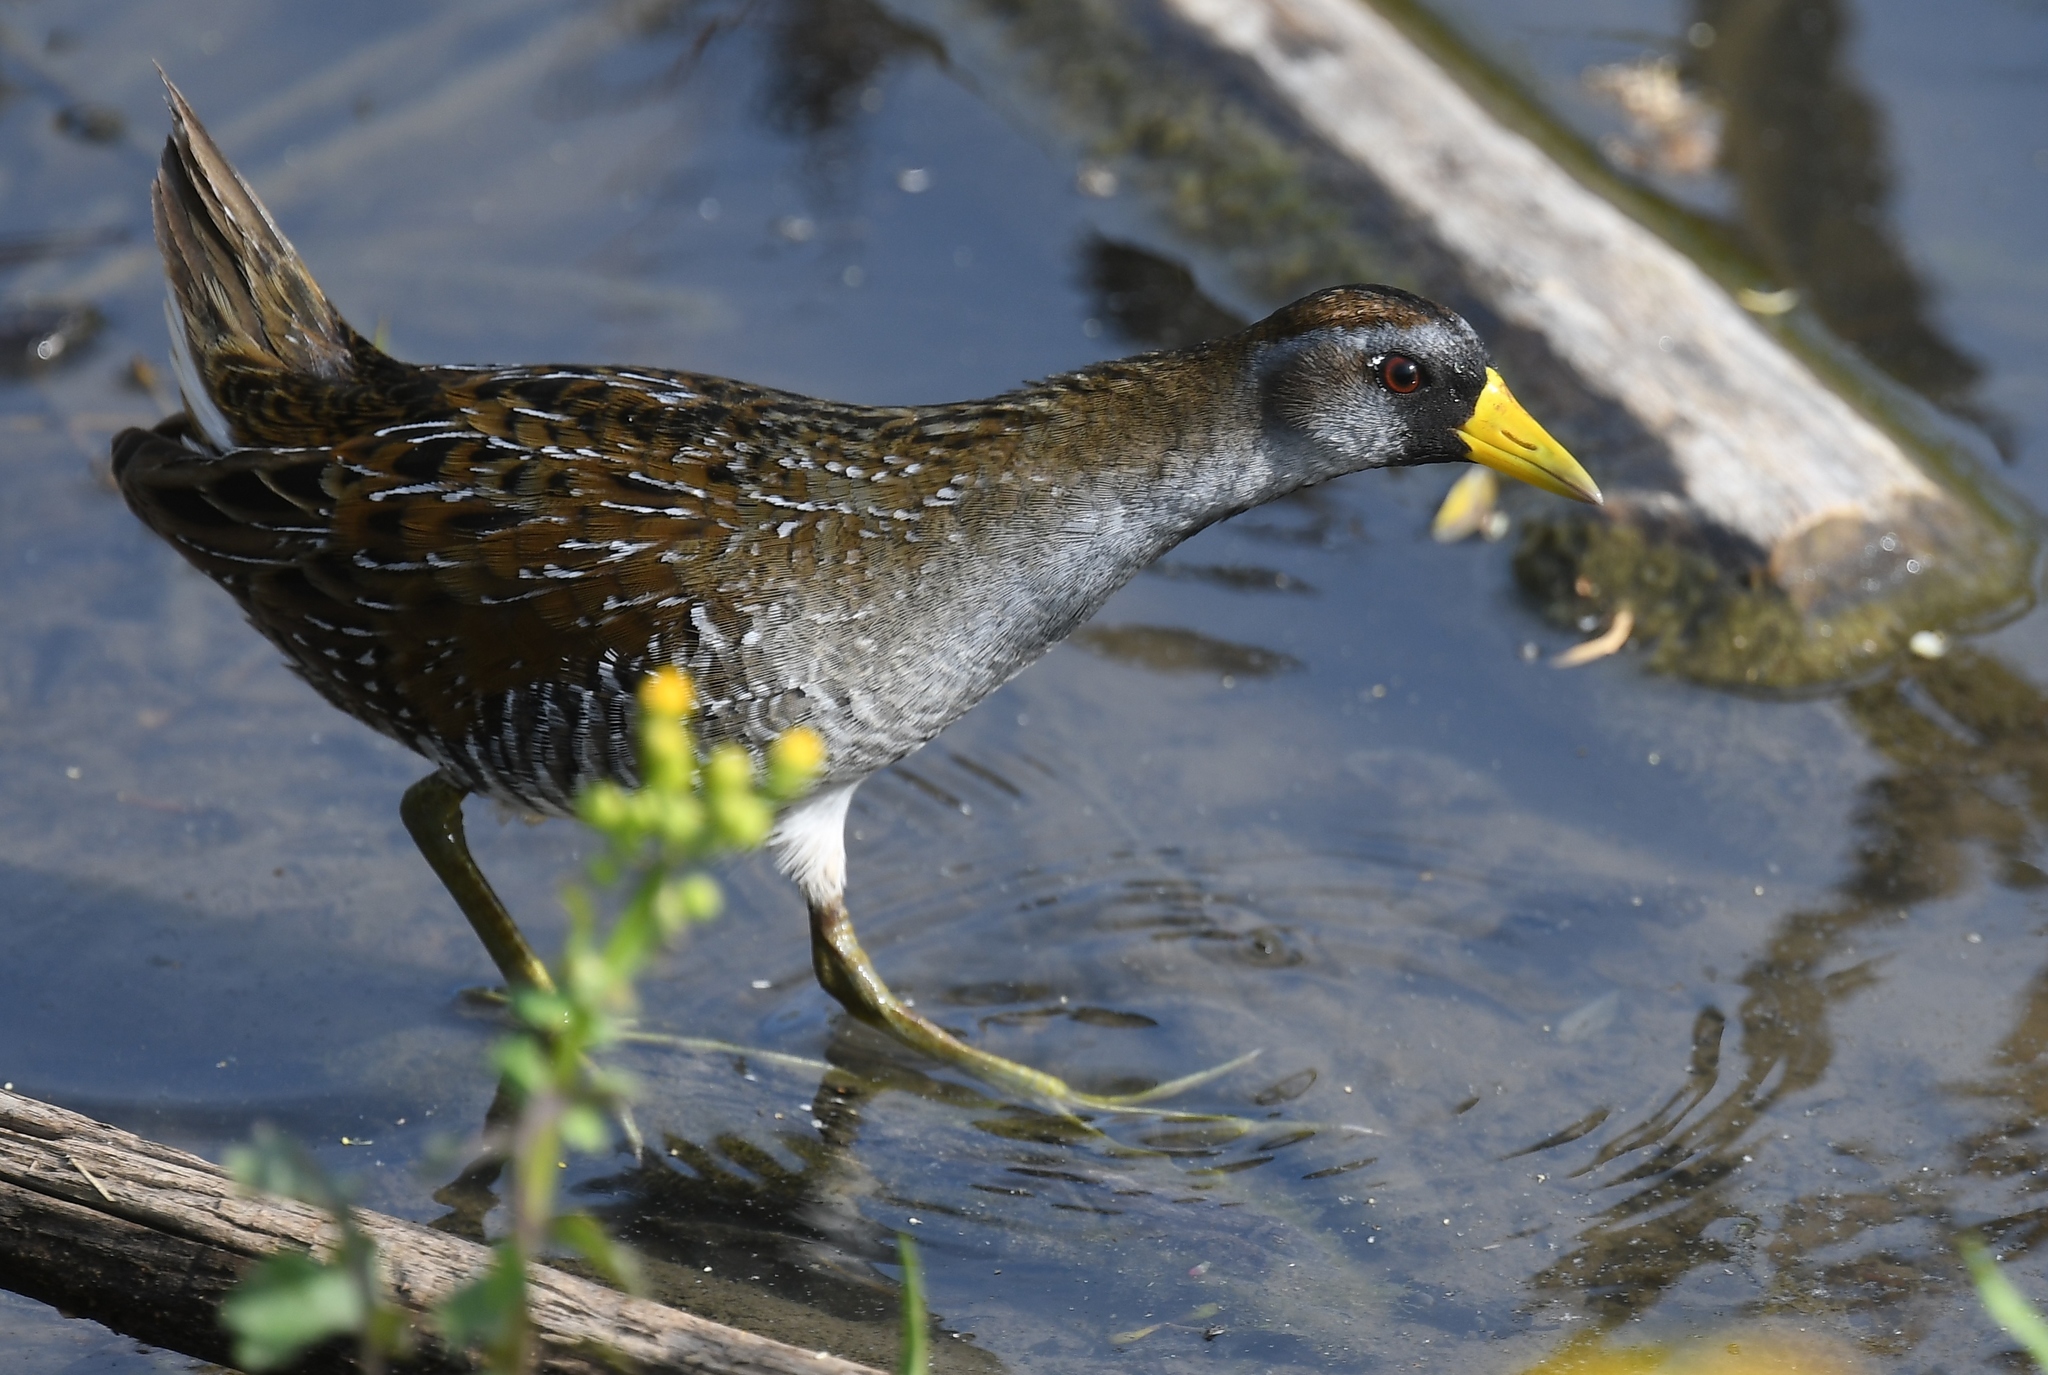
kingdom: Animalia
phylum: Chordata
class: Aves
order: Gruiformes
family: Rallidae
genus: Porzana
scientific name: Porzana carolina
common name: Sora
